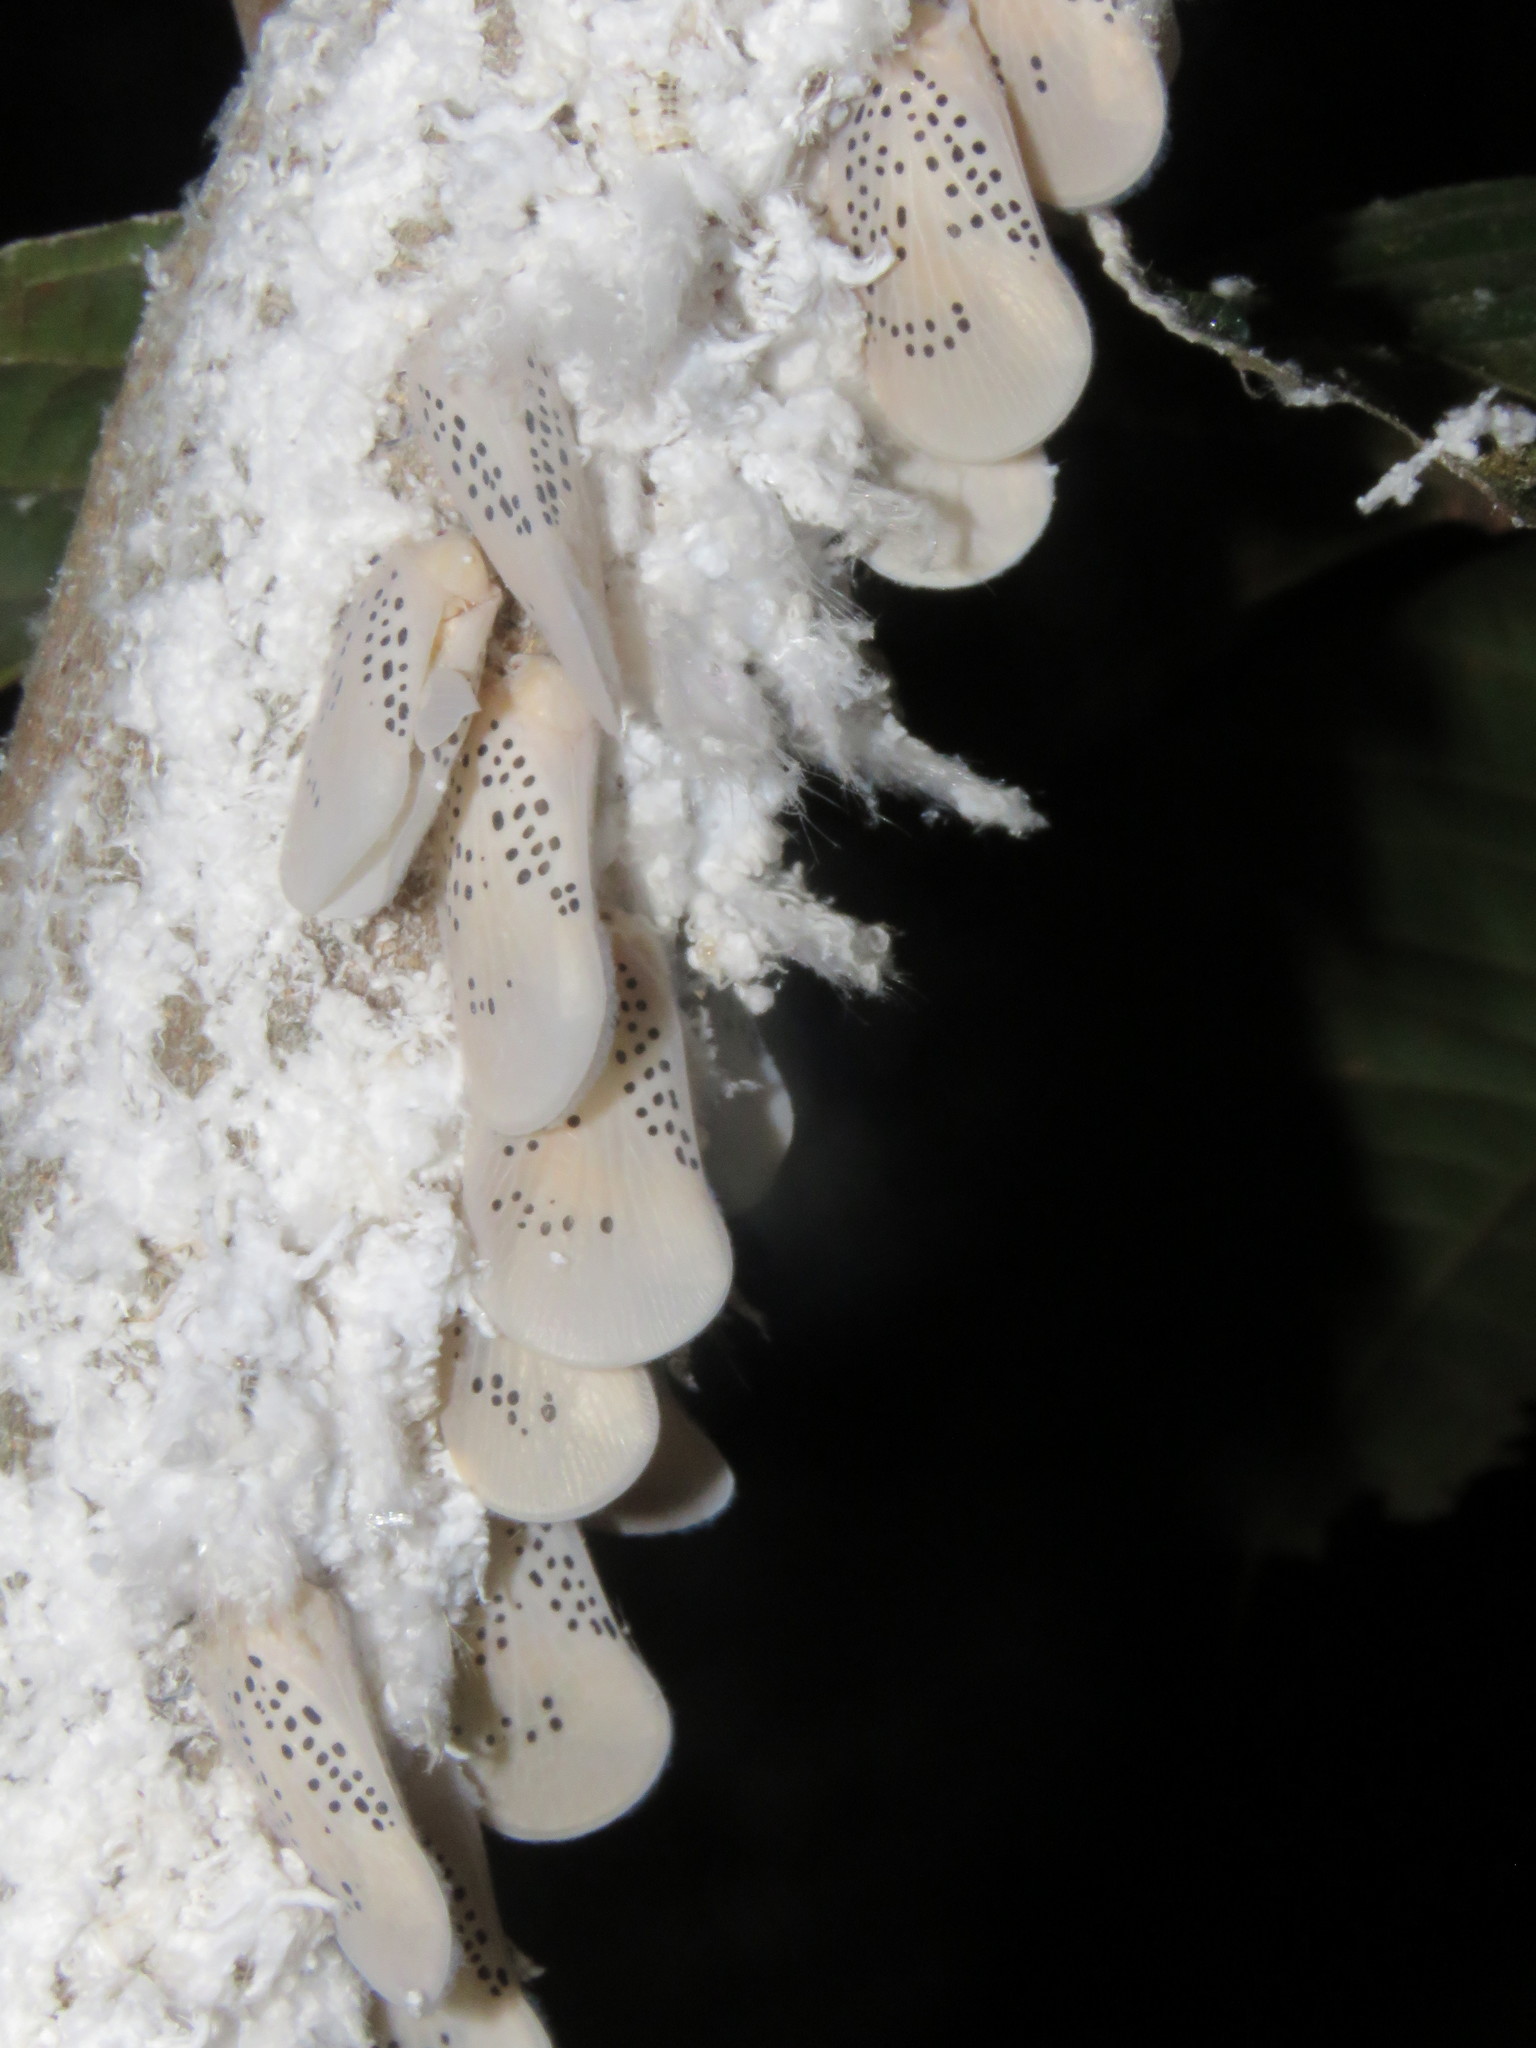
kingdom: Animalia
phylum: Arthropoda
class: Insecta
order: Hemiptera
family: Flatidae
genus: Poekilloptera
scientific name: Poekilloptera phalaenoides
